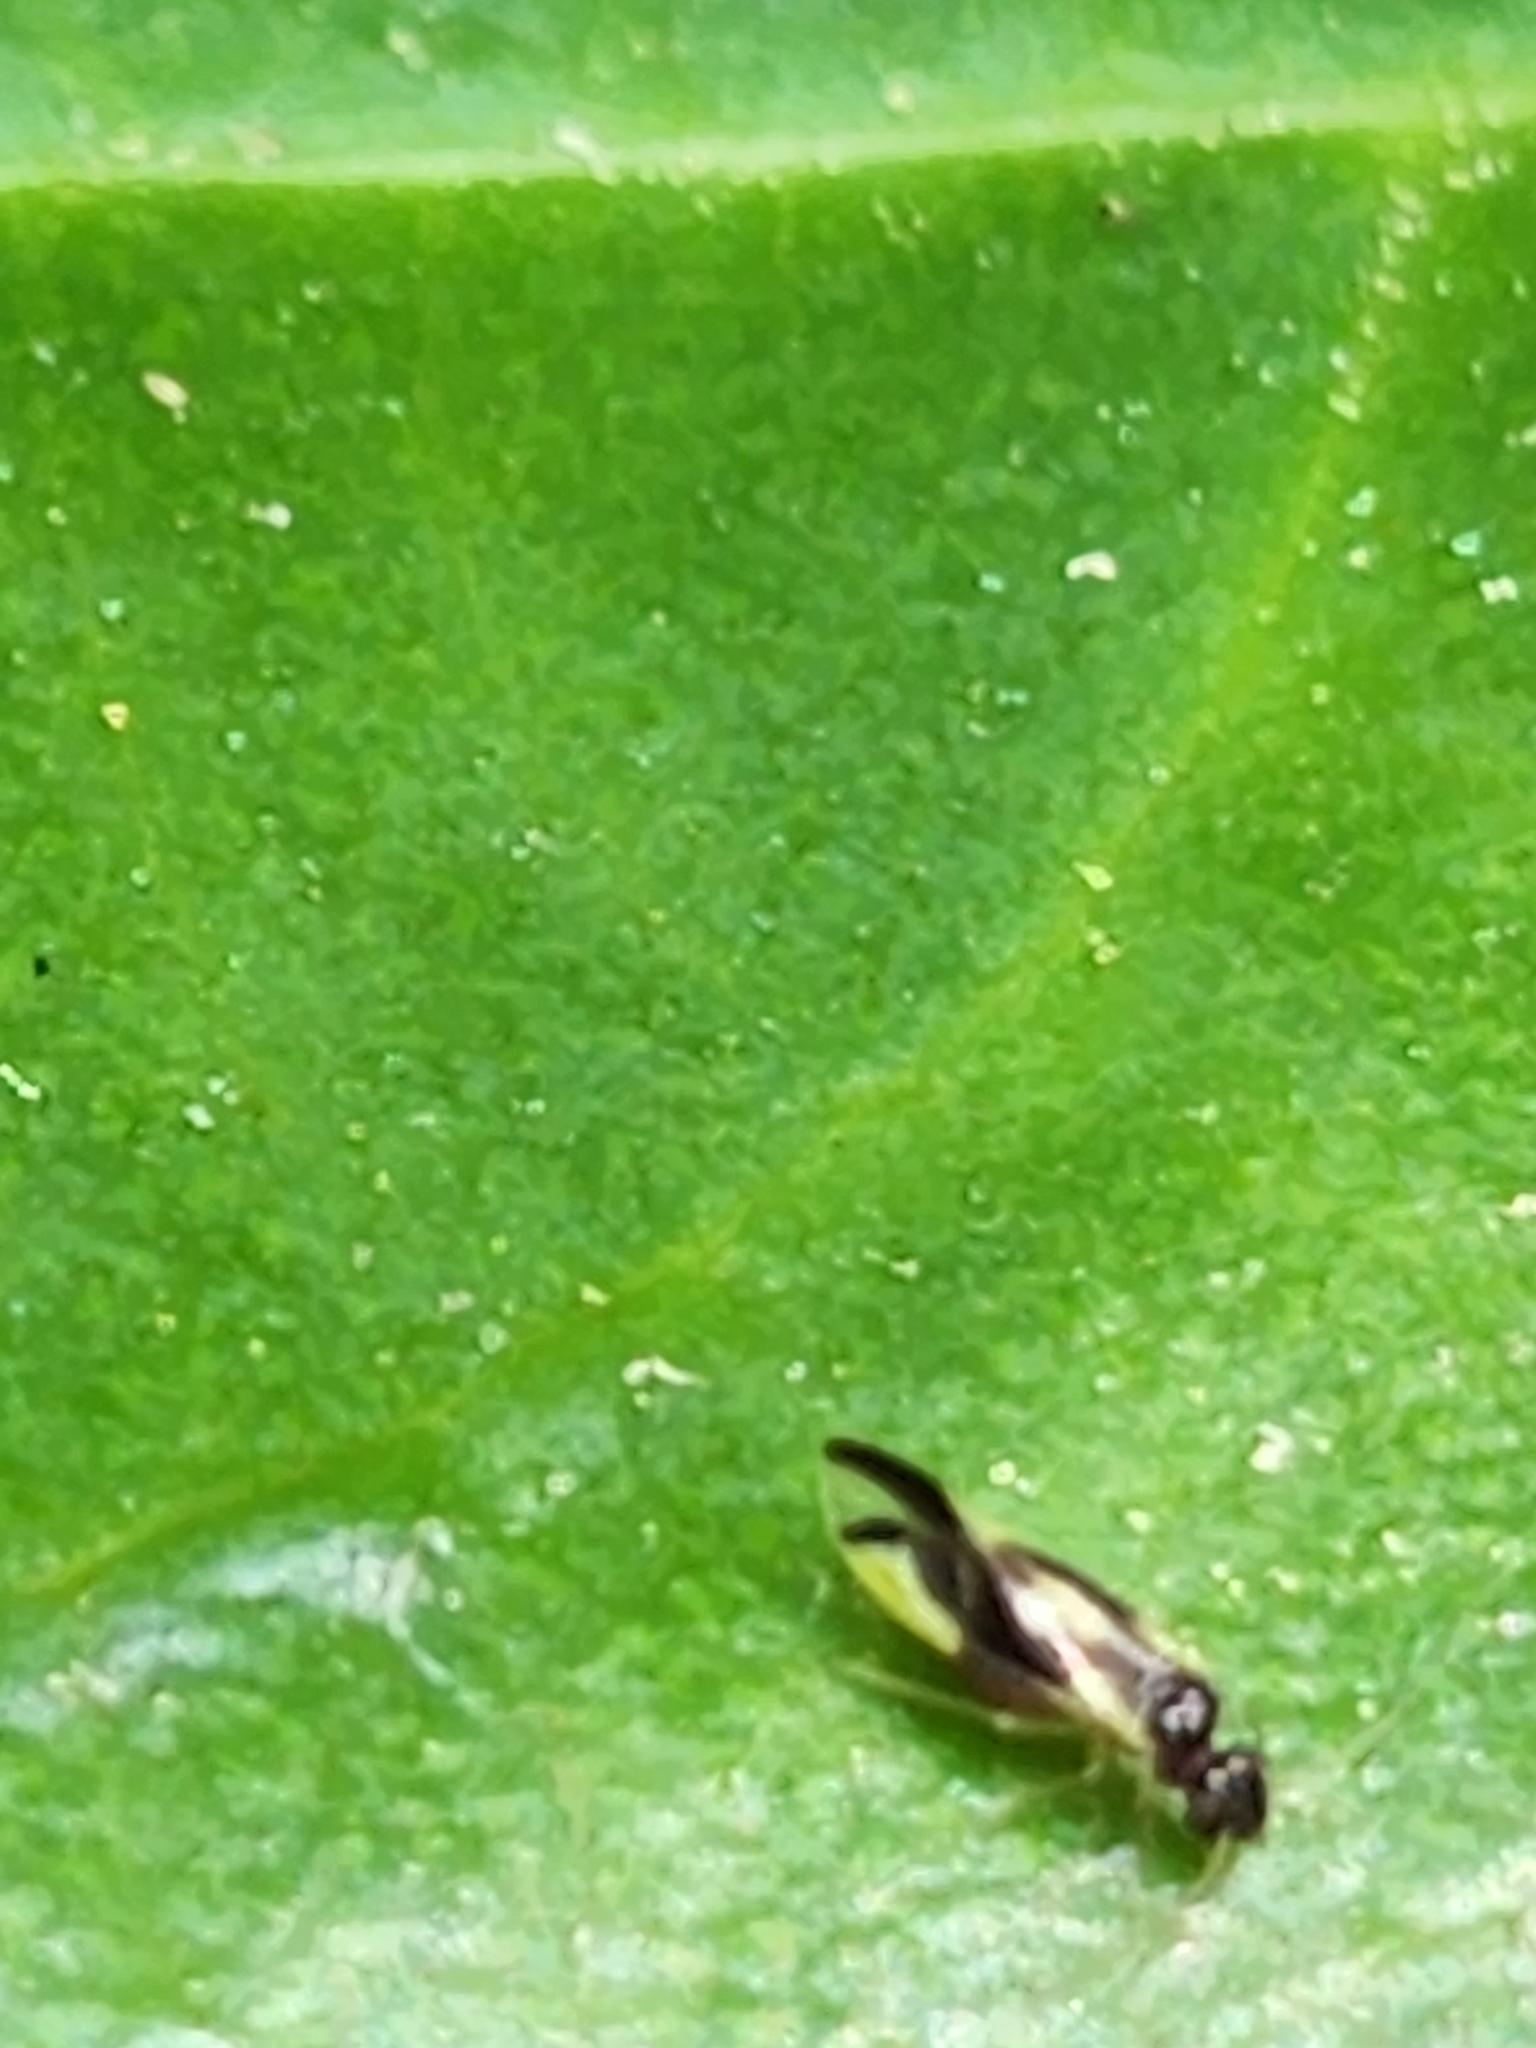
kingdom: Animalia
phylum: Arthropoda
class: Insecta
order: Psocodea
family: Caeciliusidae
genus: Valenzuela
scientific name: Valenzuela posticus
